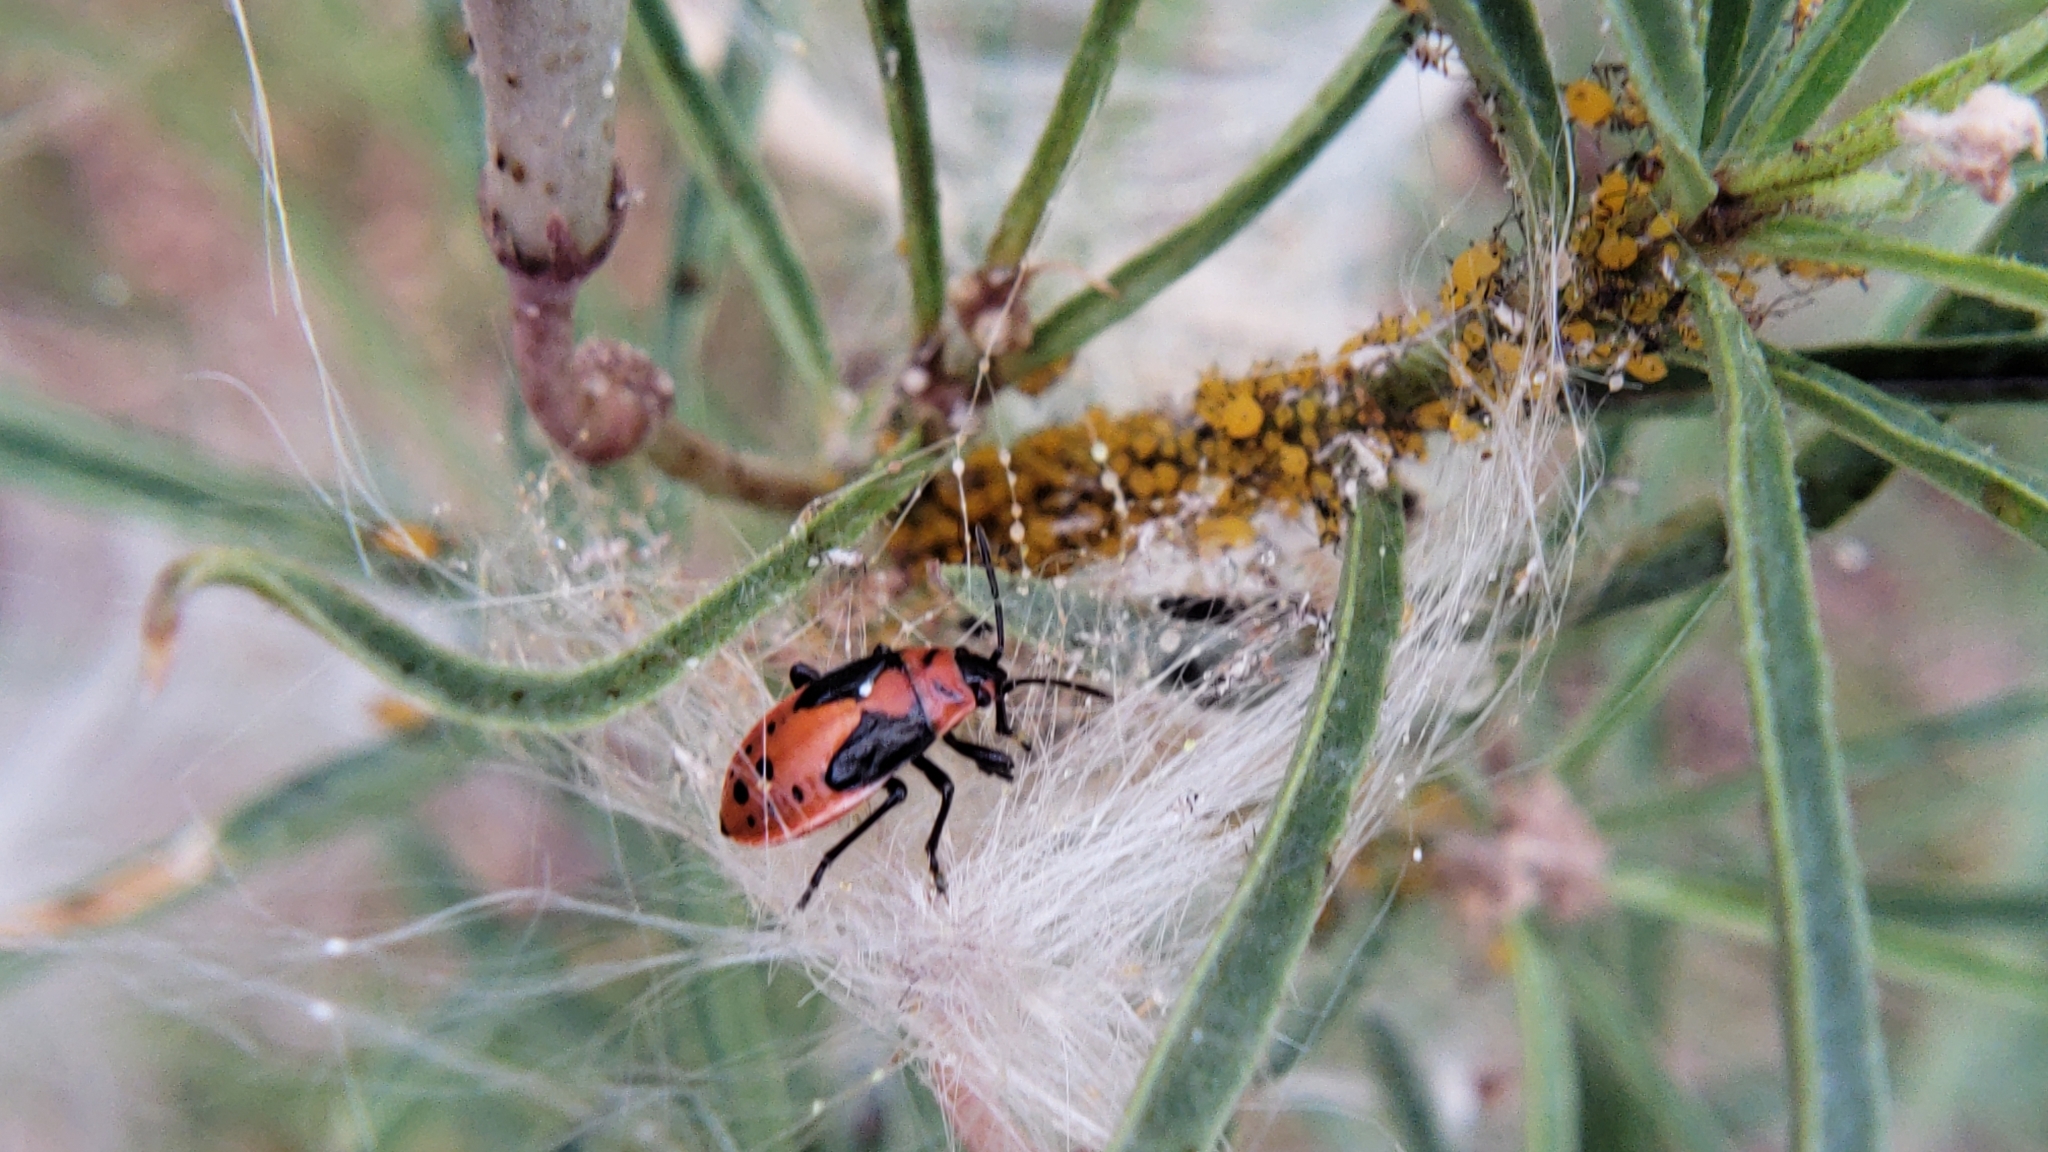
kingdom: Animalia
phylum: Arthropoda
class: Insecta
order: Hemiptera
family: Lygaeidae
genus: Lygaeus
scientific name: Lygaeus kalmii
